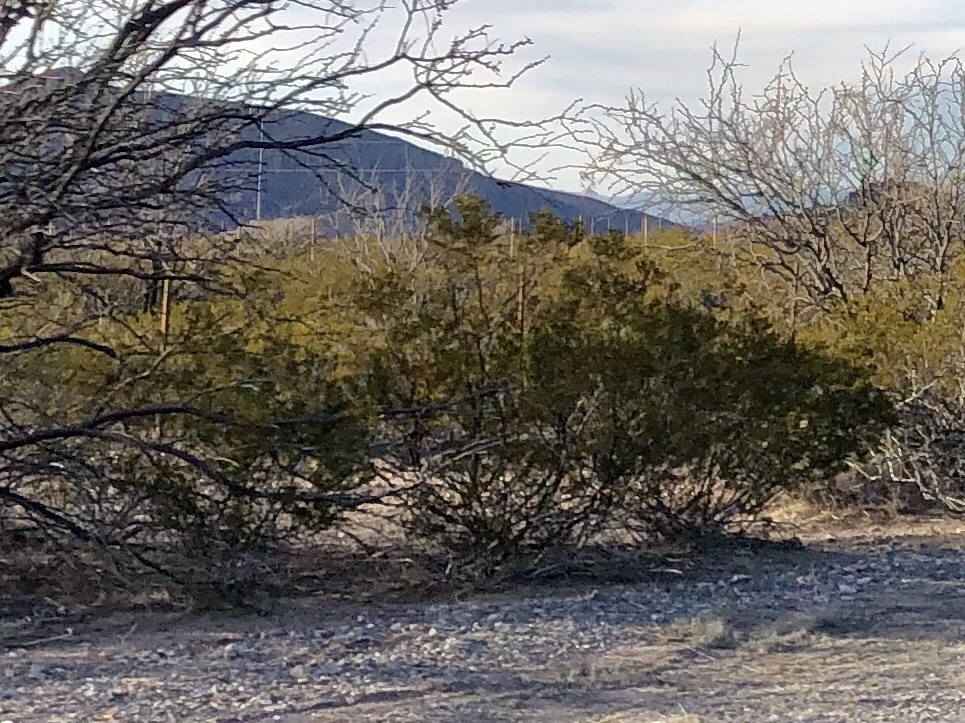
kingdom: Plantae
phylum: Tracheophyta
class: Magnoliopsida
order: Zygophyllales
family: Zygophyllaceae
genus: Larrea
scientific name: Larrea tridentata
